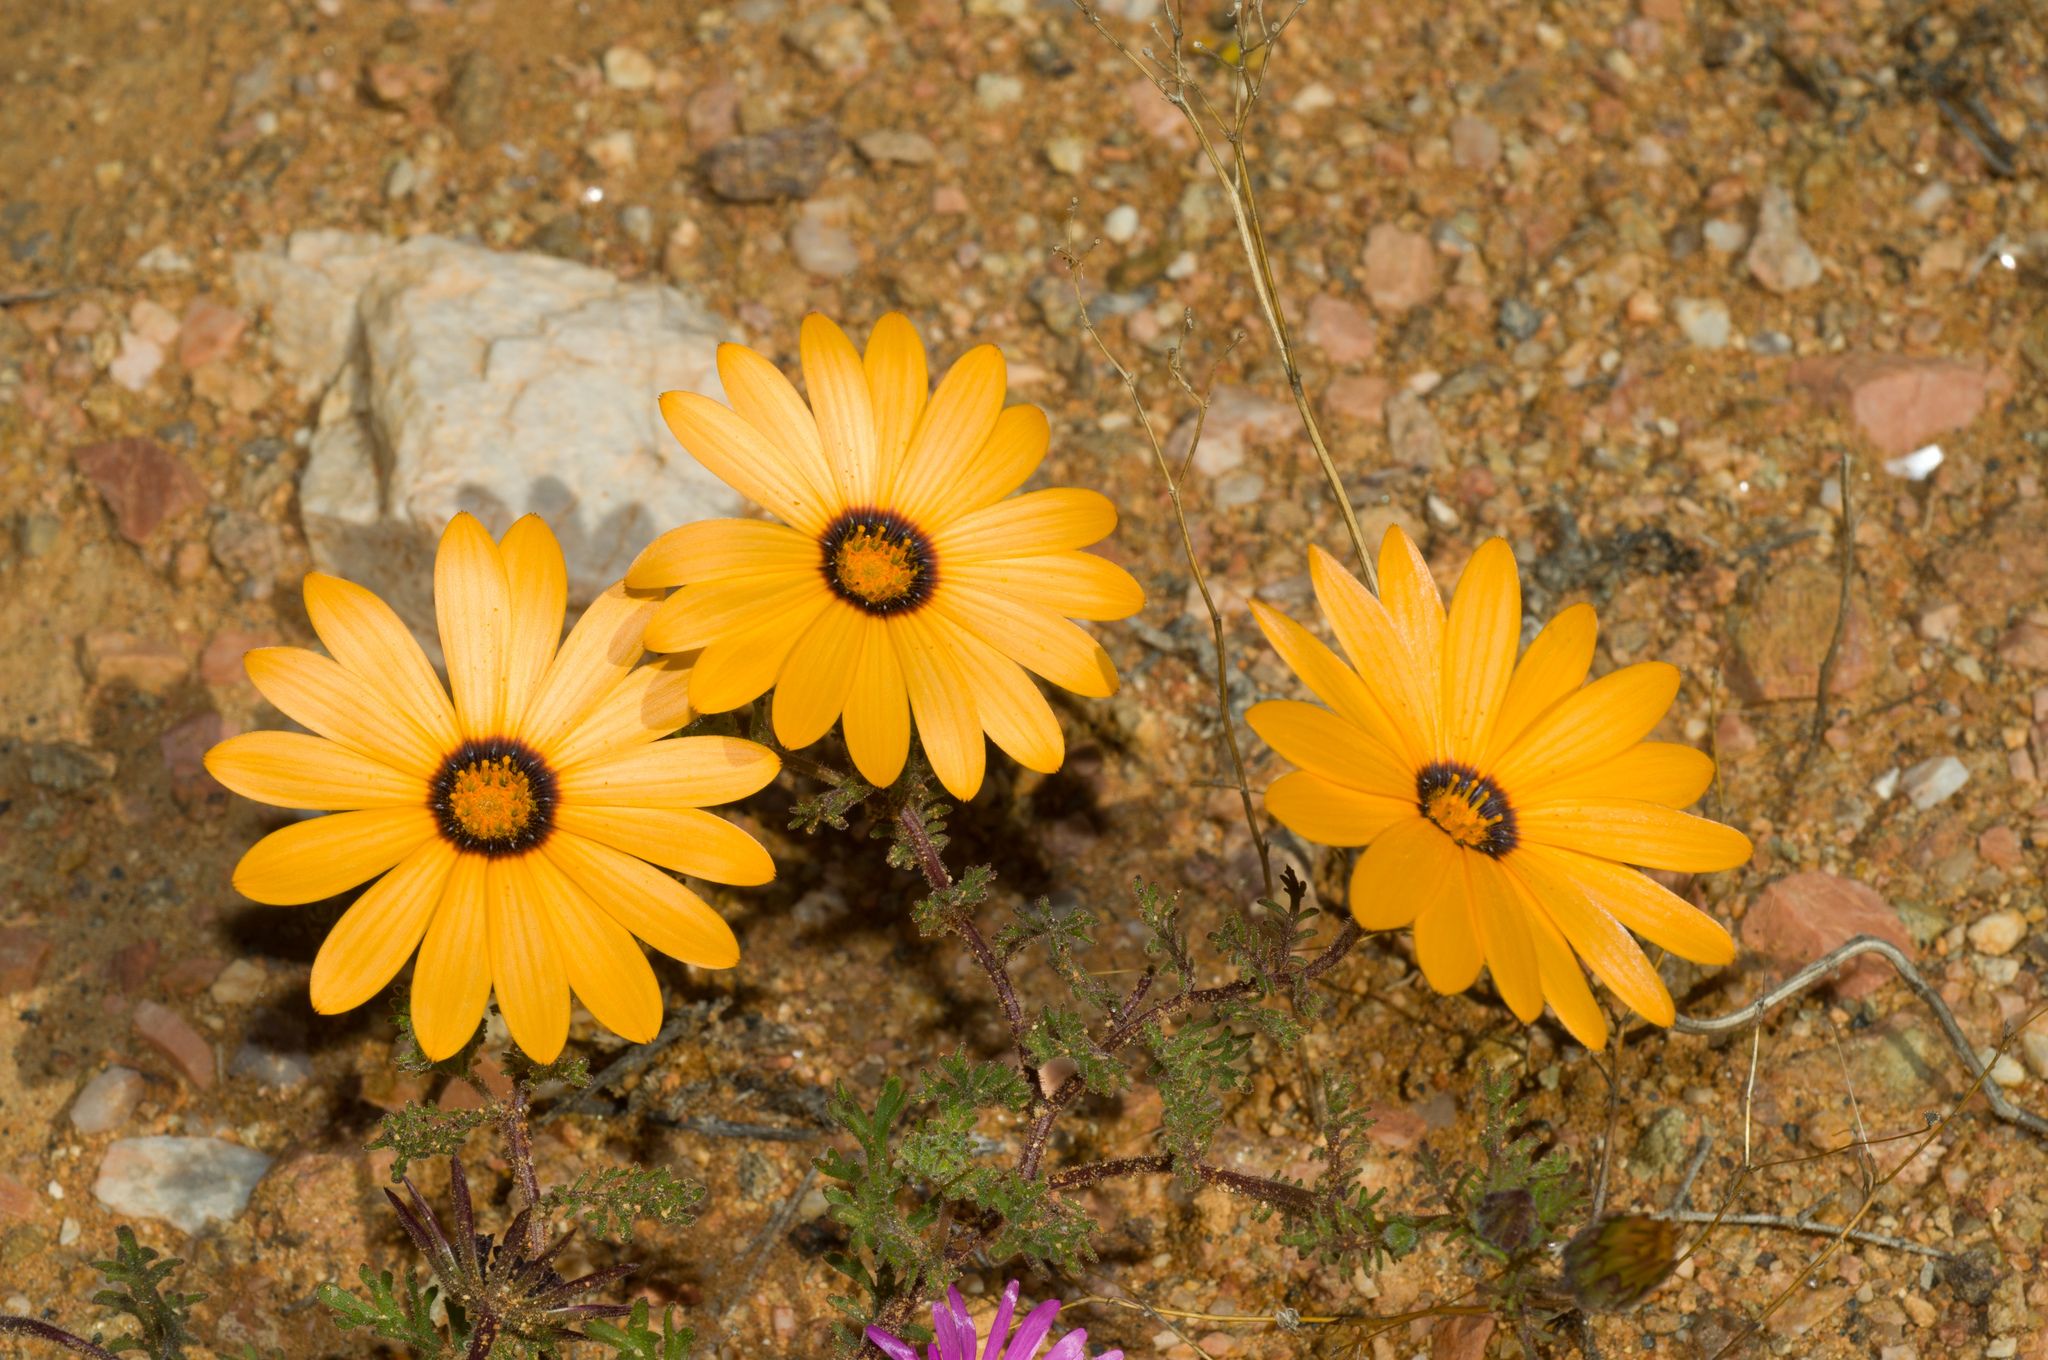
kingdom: Plantae
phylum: Tracheophyta
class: Magnoliopsida
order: Asterales
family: Asteraceae
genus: Dimorphotheca
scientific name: Dimorphotheca pinnata
